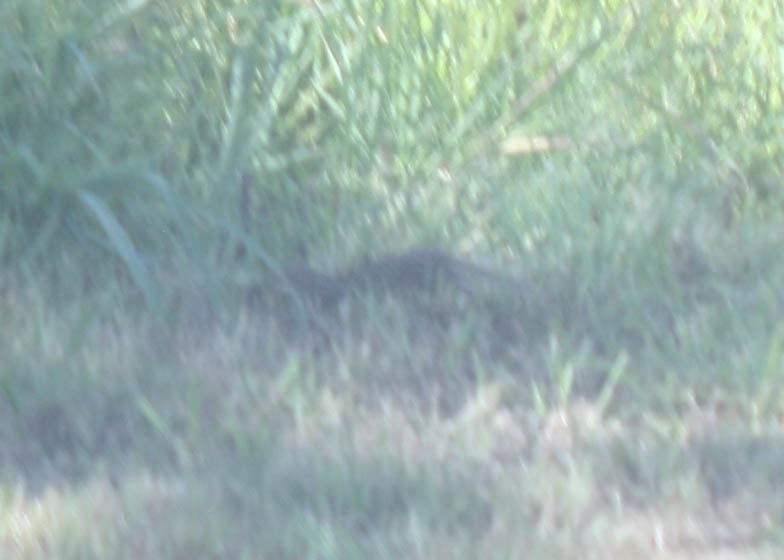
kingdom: Animalia
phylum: Chordata
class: Mammalia
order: Rodentia
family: Sciuridae
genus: Ictidomys
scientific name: Ictidomys tridecemlineatus
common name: Thirteen-lined ground squirrel
